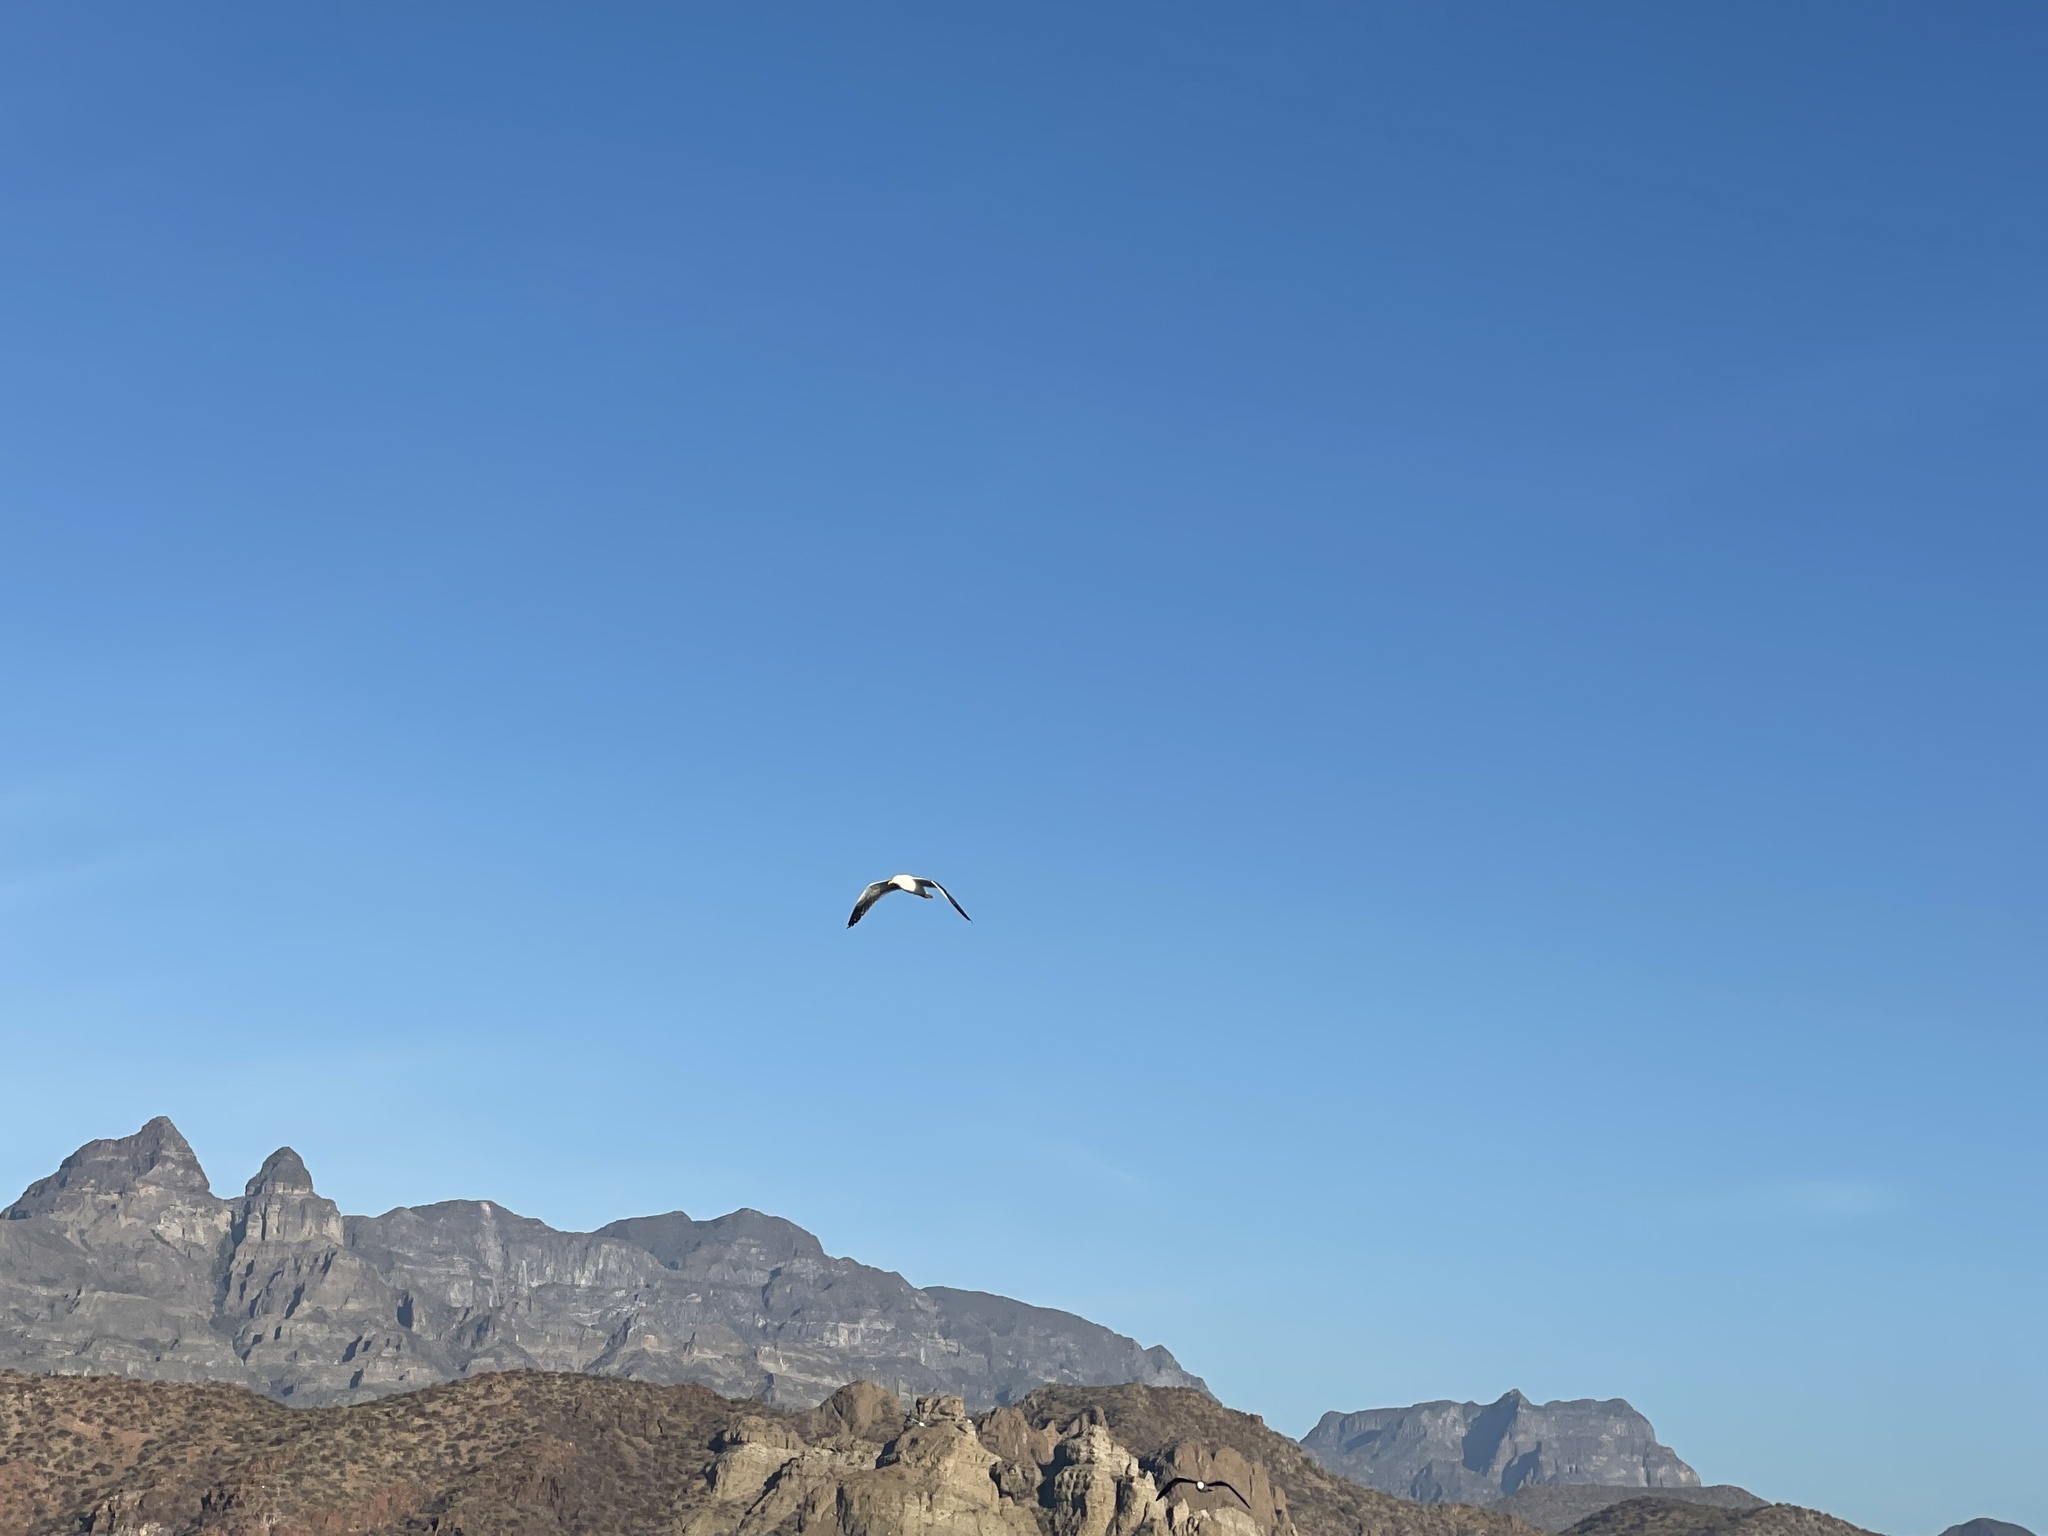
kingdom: Animalia
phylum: Chordata
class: Aves
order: Charadriiformes
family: Laridae
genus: Larus
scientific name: Larus livens
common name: Yellow-footed gull
